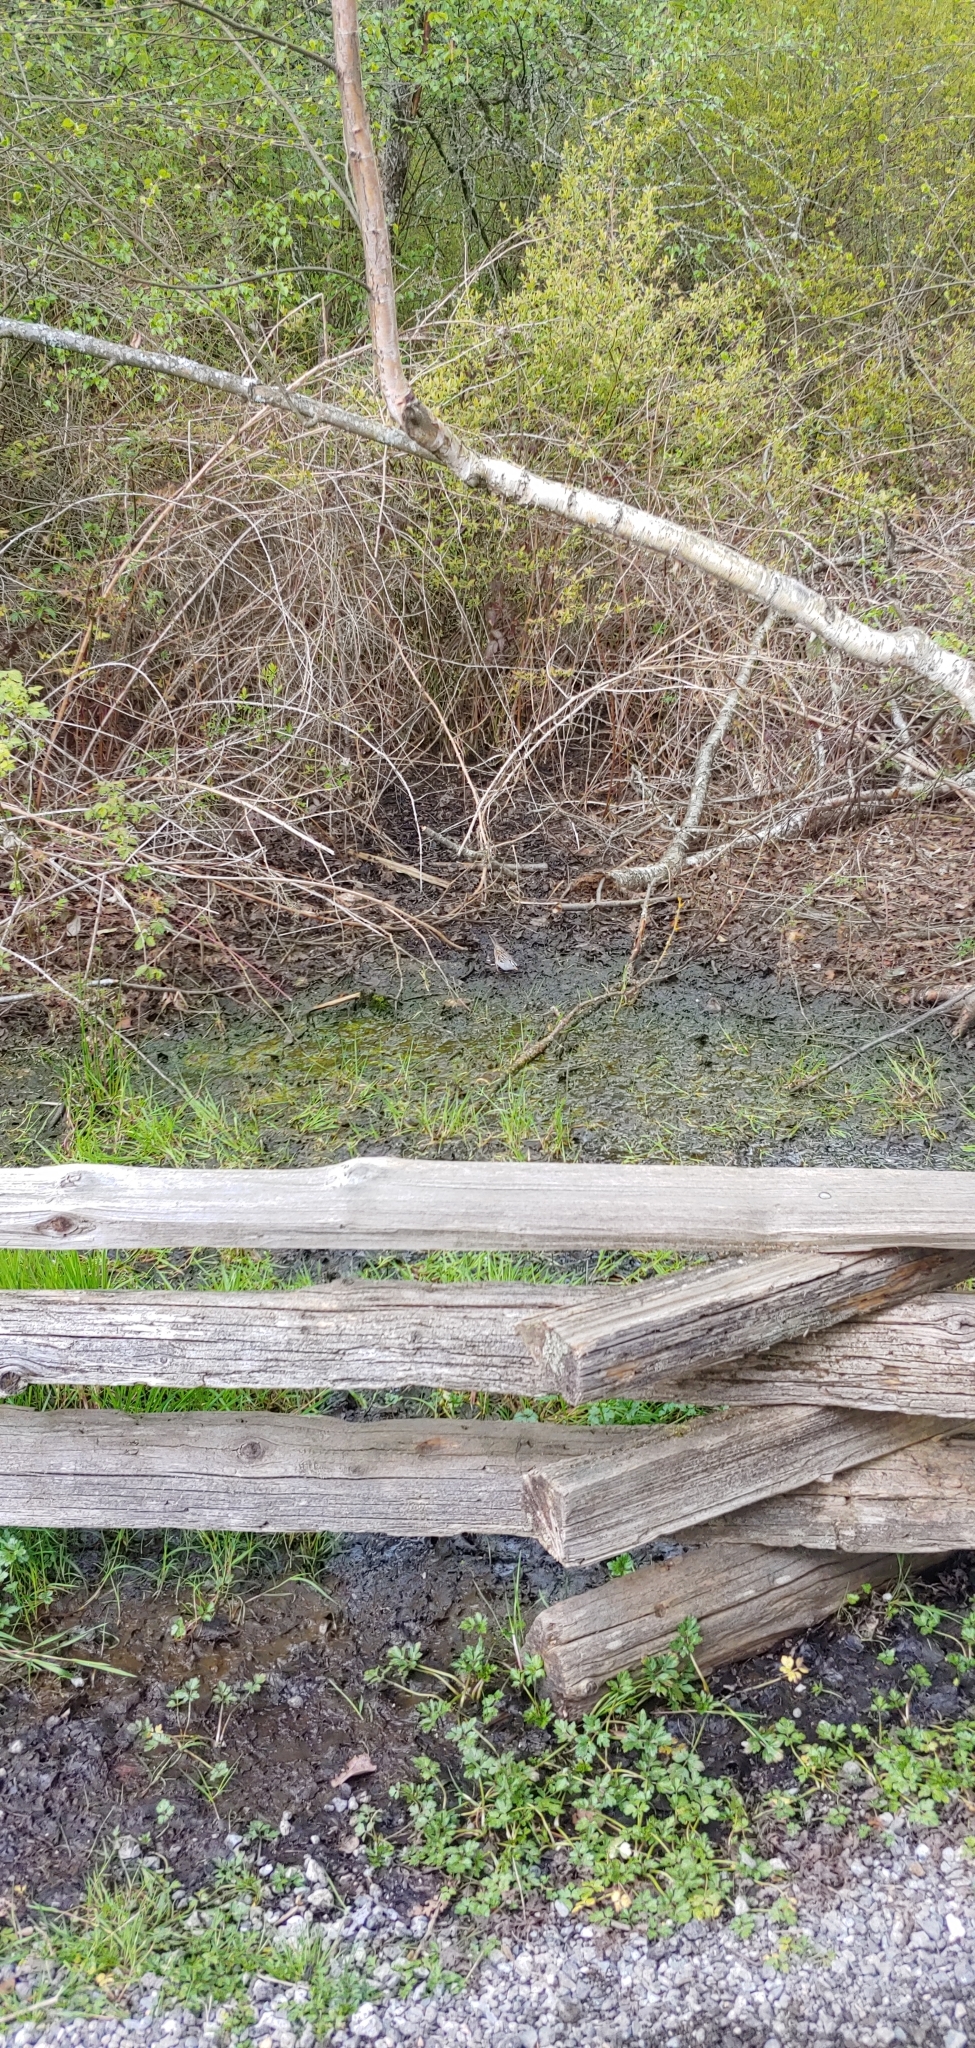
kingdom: Animalia
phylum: Chordata
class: Aves
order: Passeriformes
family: Passerellidae
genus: Zonotrichia
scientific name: Zonotrichia leucophrys
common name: White-crowned sparrow
